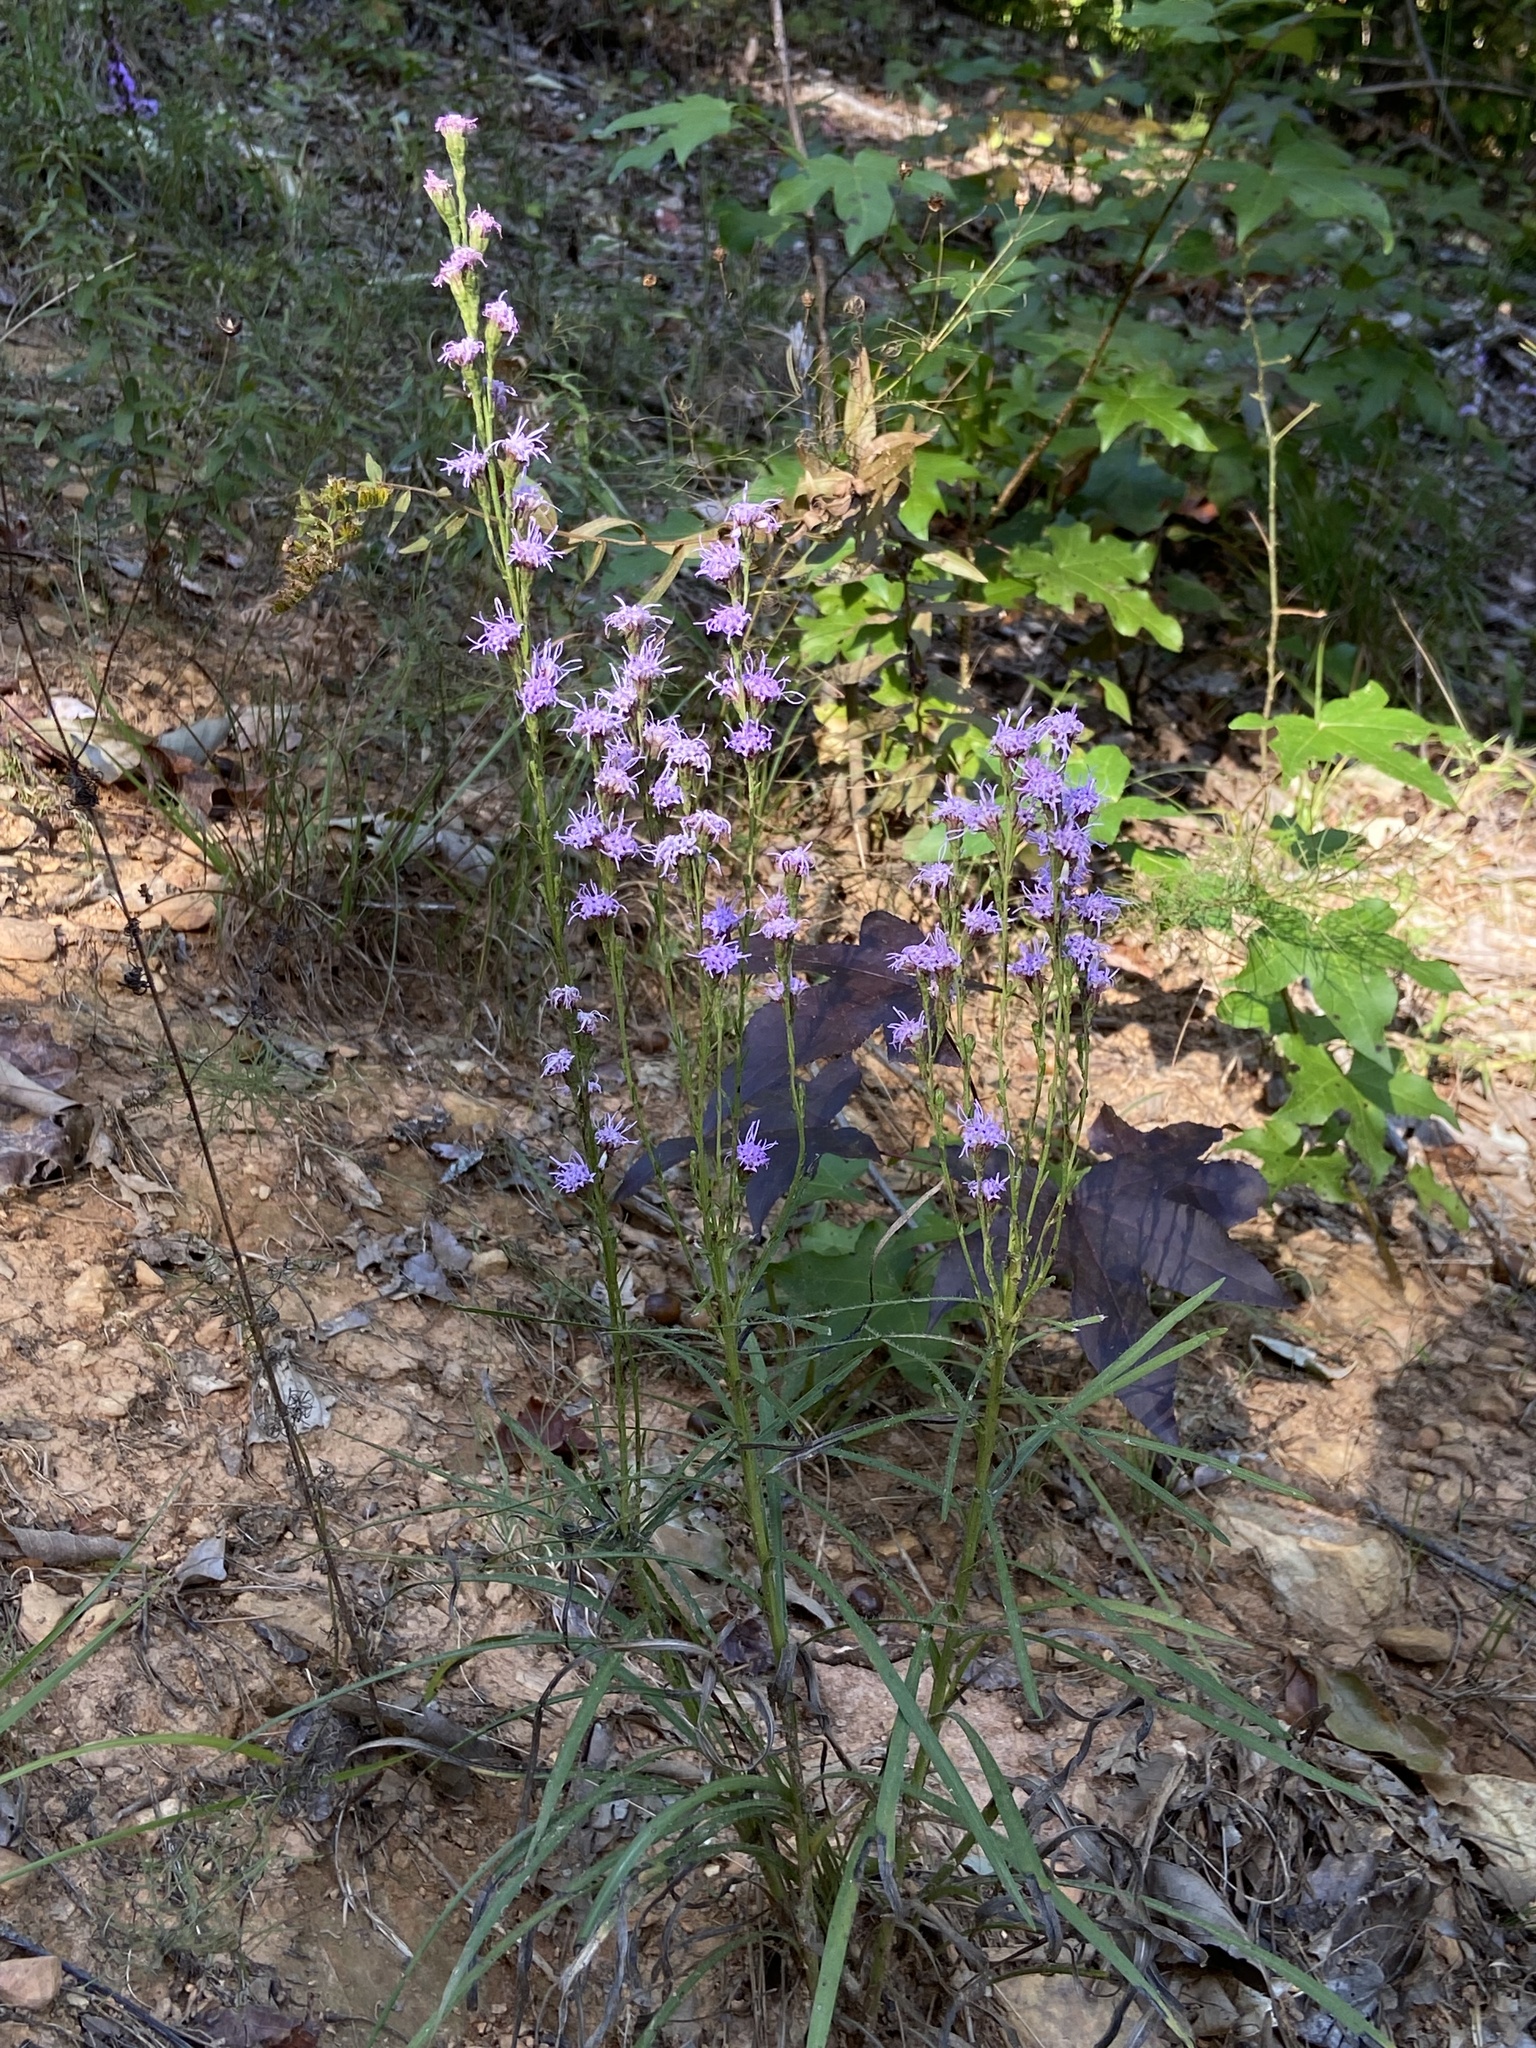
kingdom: Plantae
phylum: Tracheophyta
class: Magnoliopsida
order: Asterales
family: Asteraceae
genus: Liatris
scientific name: Liatris pilosa
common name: Grass-leaf gayfeather
